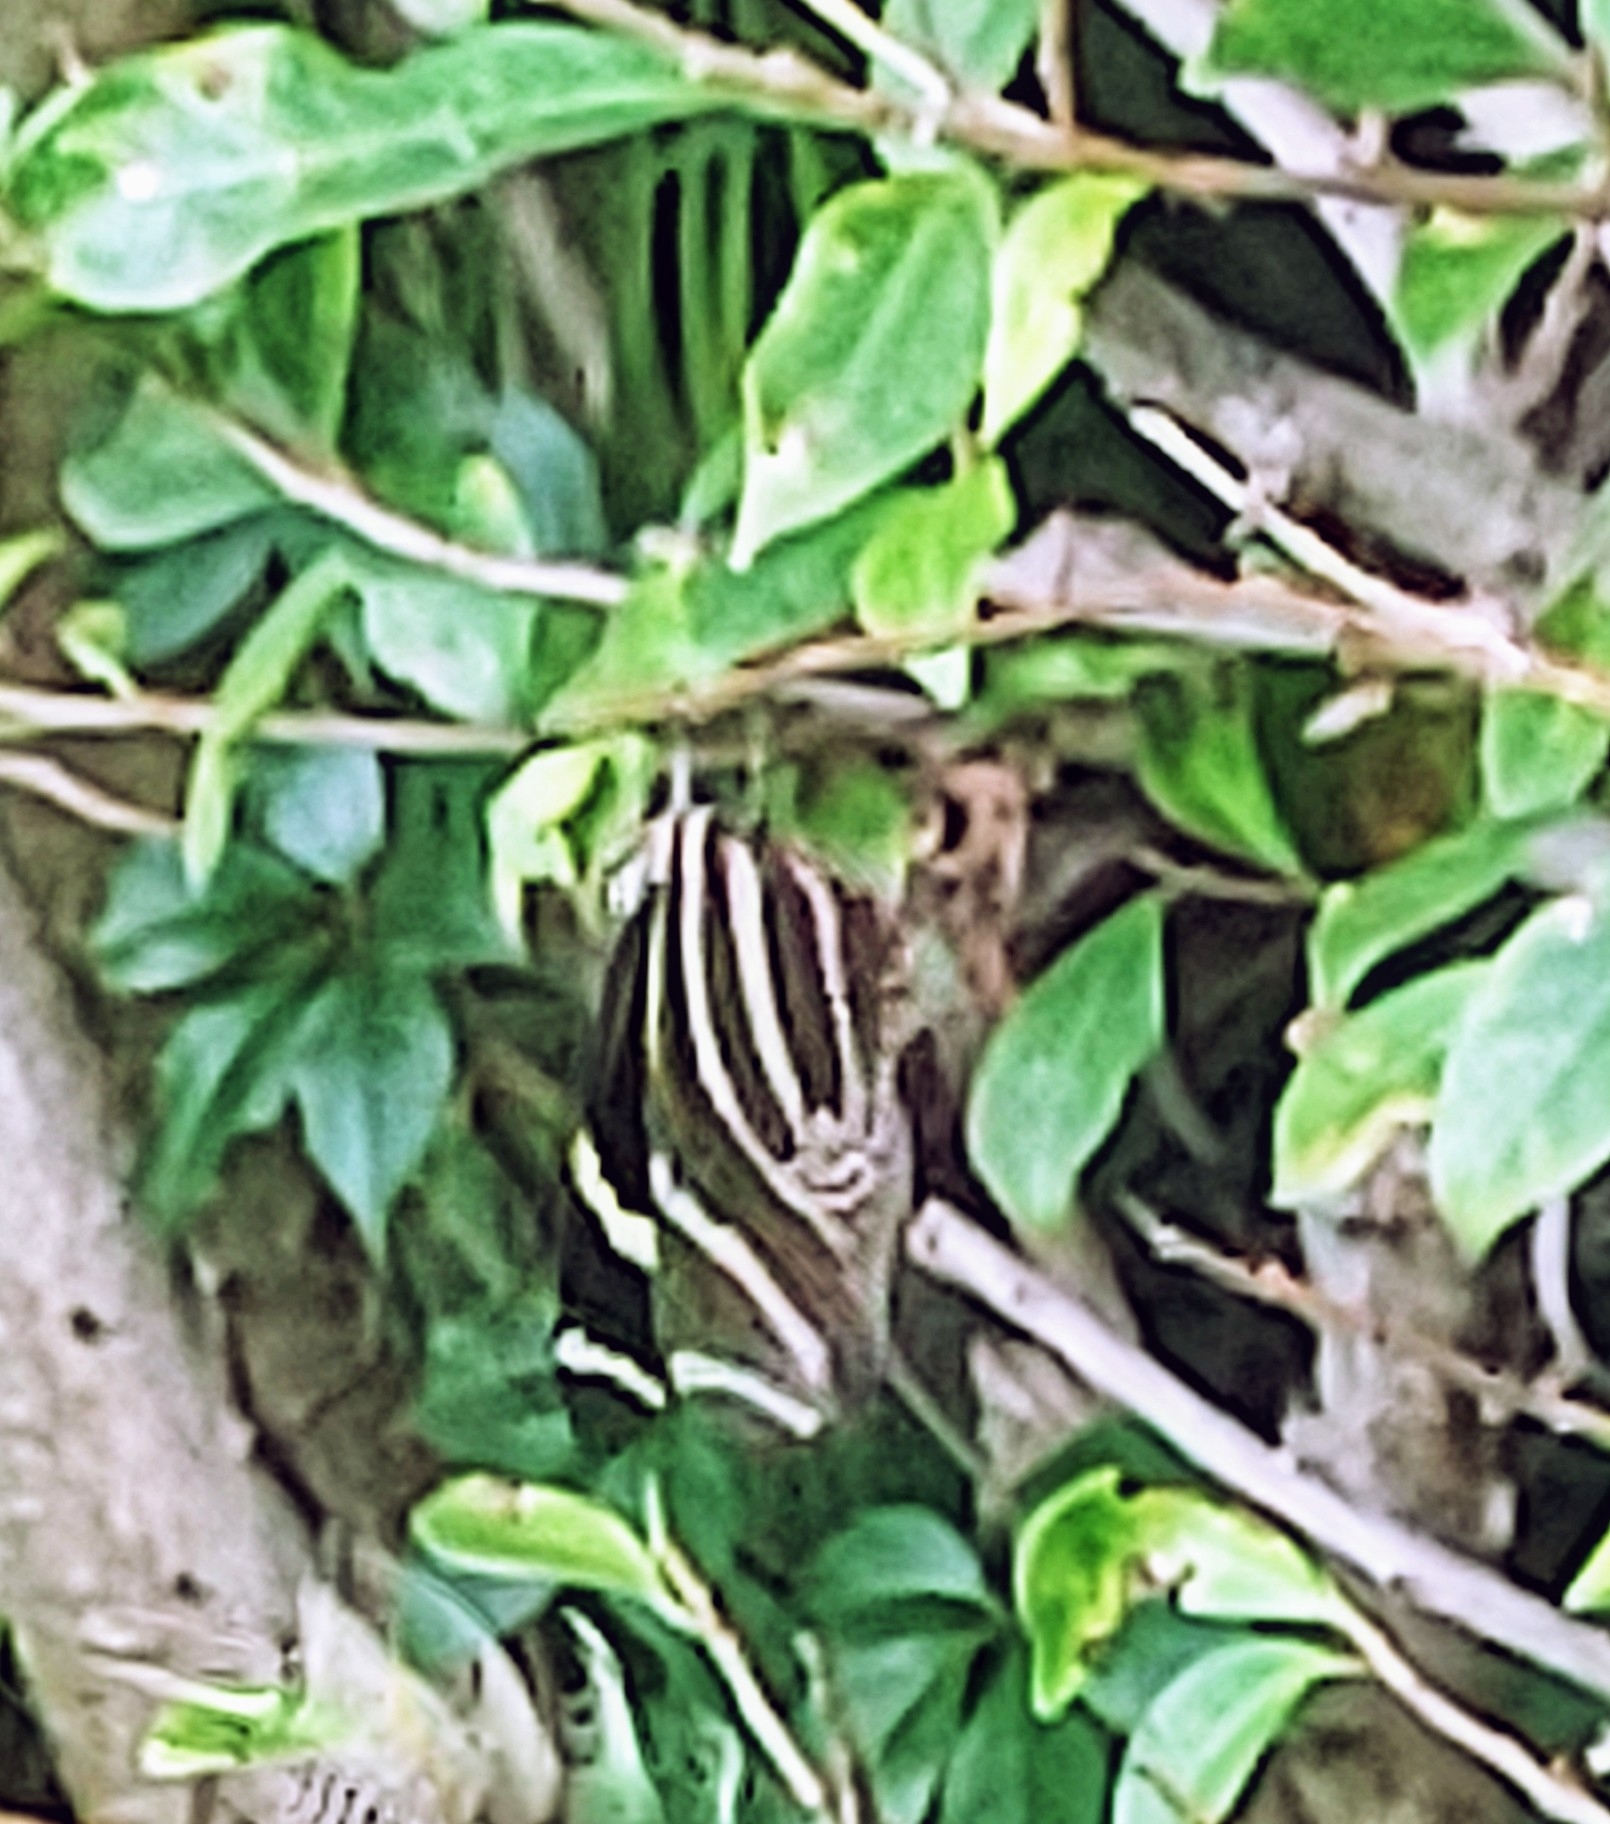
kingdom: Animalia
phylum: Arthropoda
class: Insecta
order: Lepidoptera
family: Nymphalidae
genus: Heliconius
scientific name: Heliconius charithonia
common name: Zebra long wing
